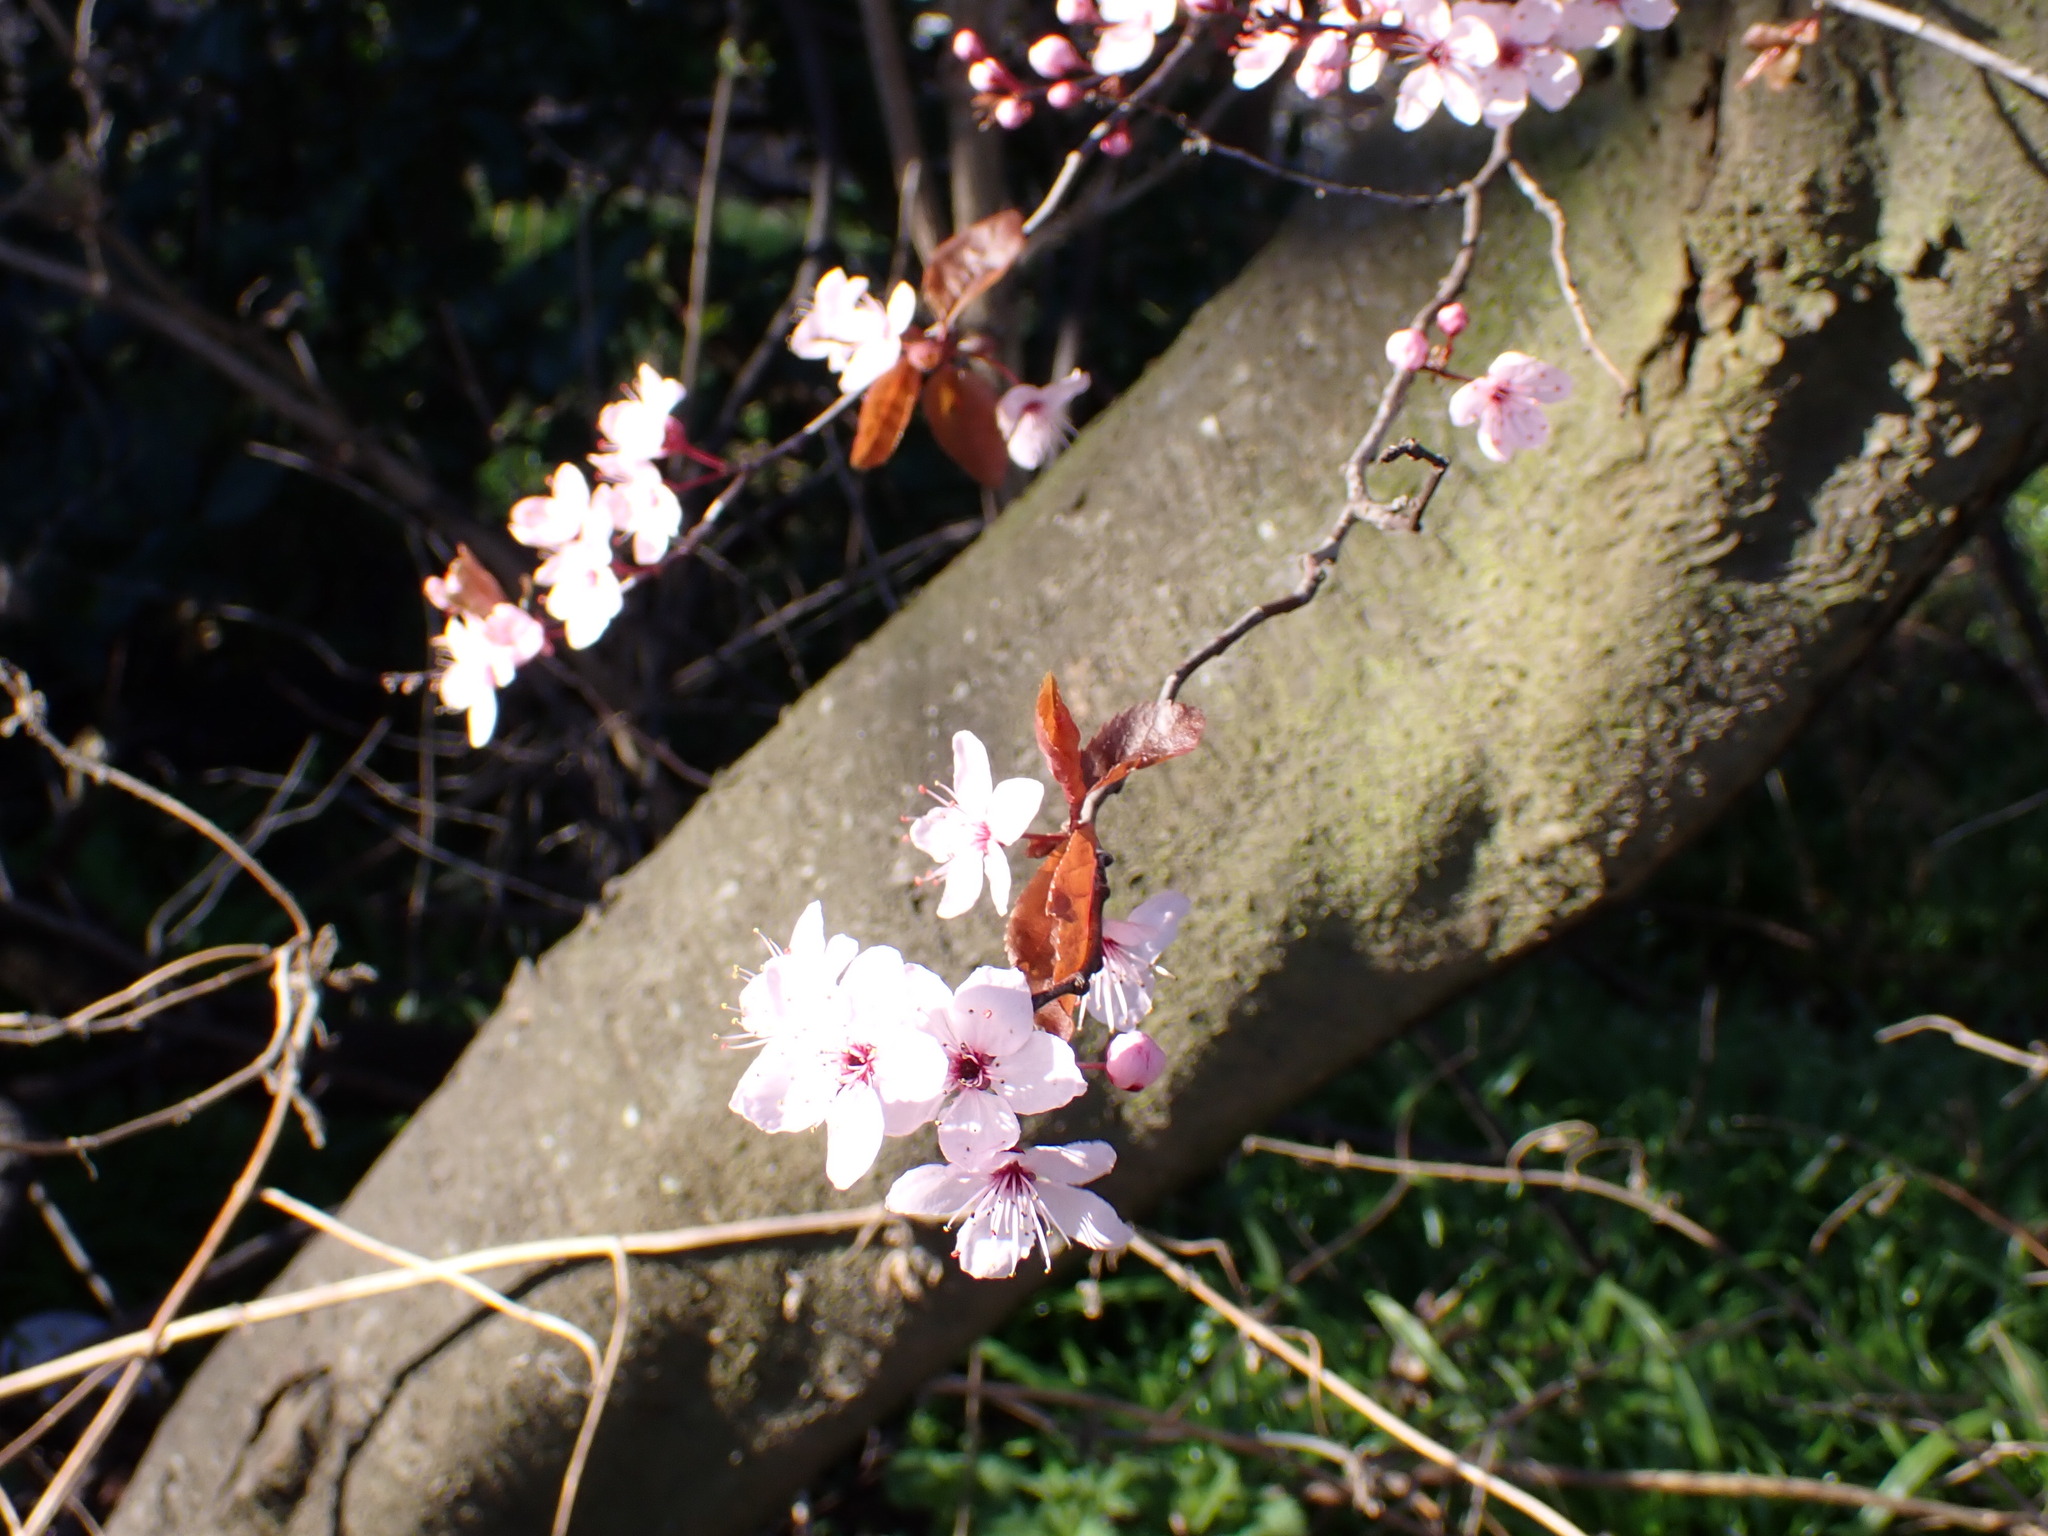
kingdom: Plantae
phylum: Tracheophyta
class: Magnoliopsida
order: Rosales
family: Rosaceae
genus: Prunus
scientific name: Prunus cerasifera
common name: Cherry plum
